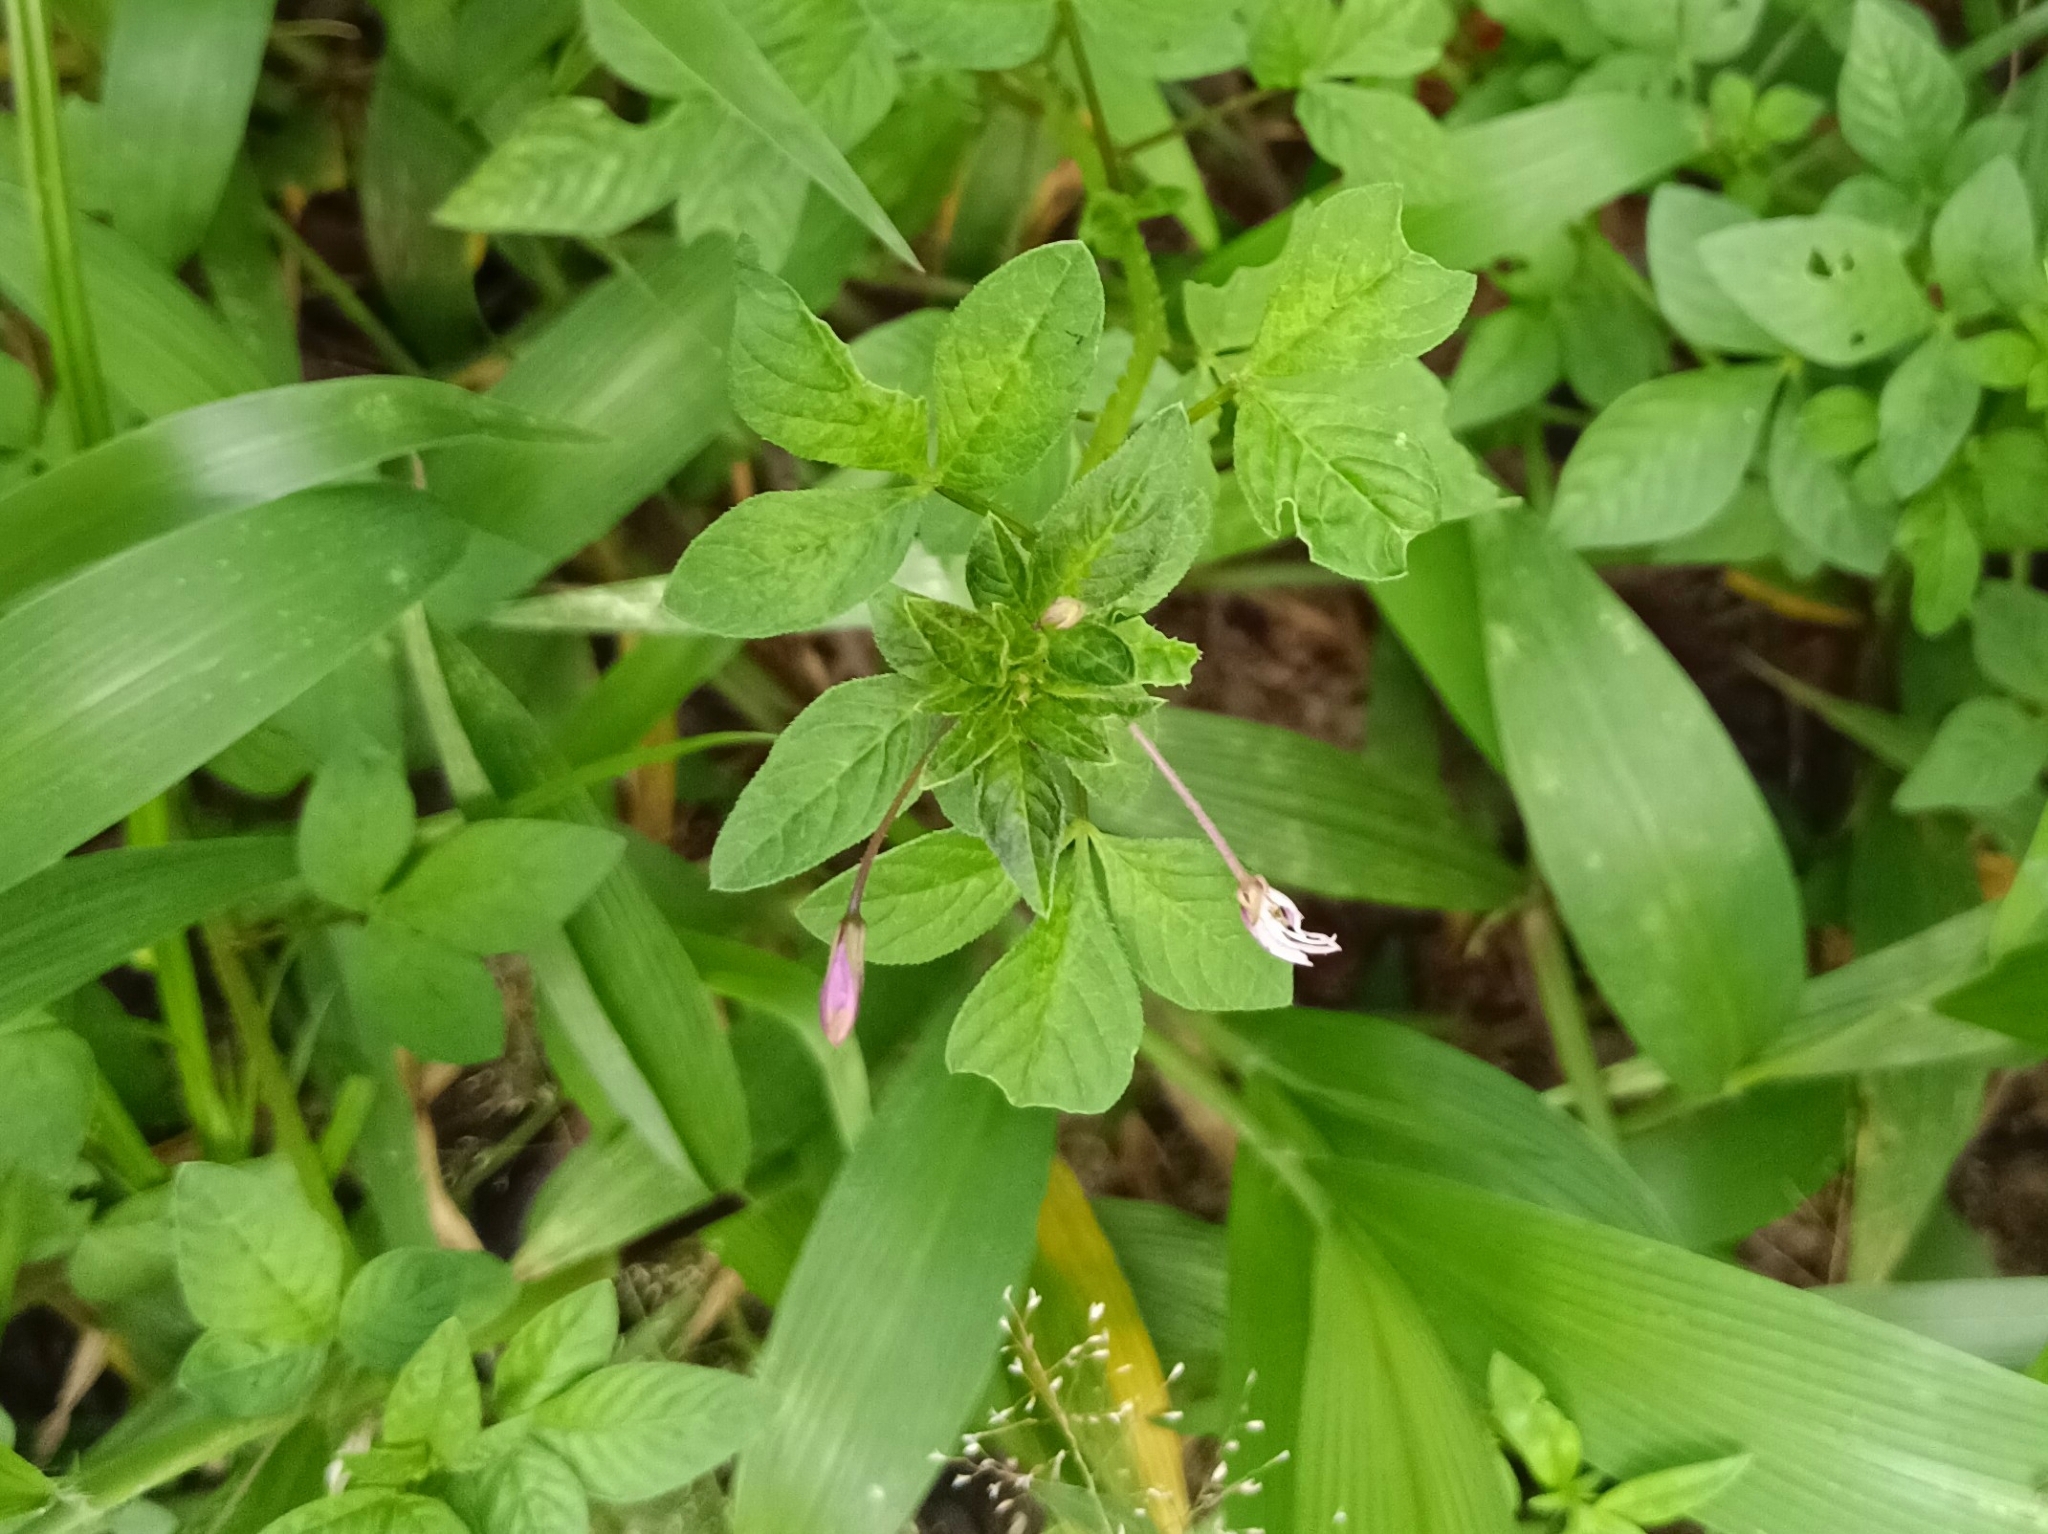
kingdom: Plantae
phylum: Tracheophyta
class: Magnoliopsida
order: Brassicales
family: Cleomaceae
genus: Sieruela
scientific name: Sieruela rutidosperma
